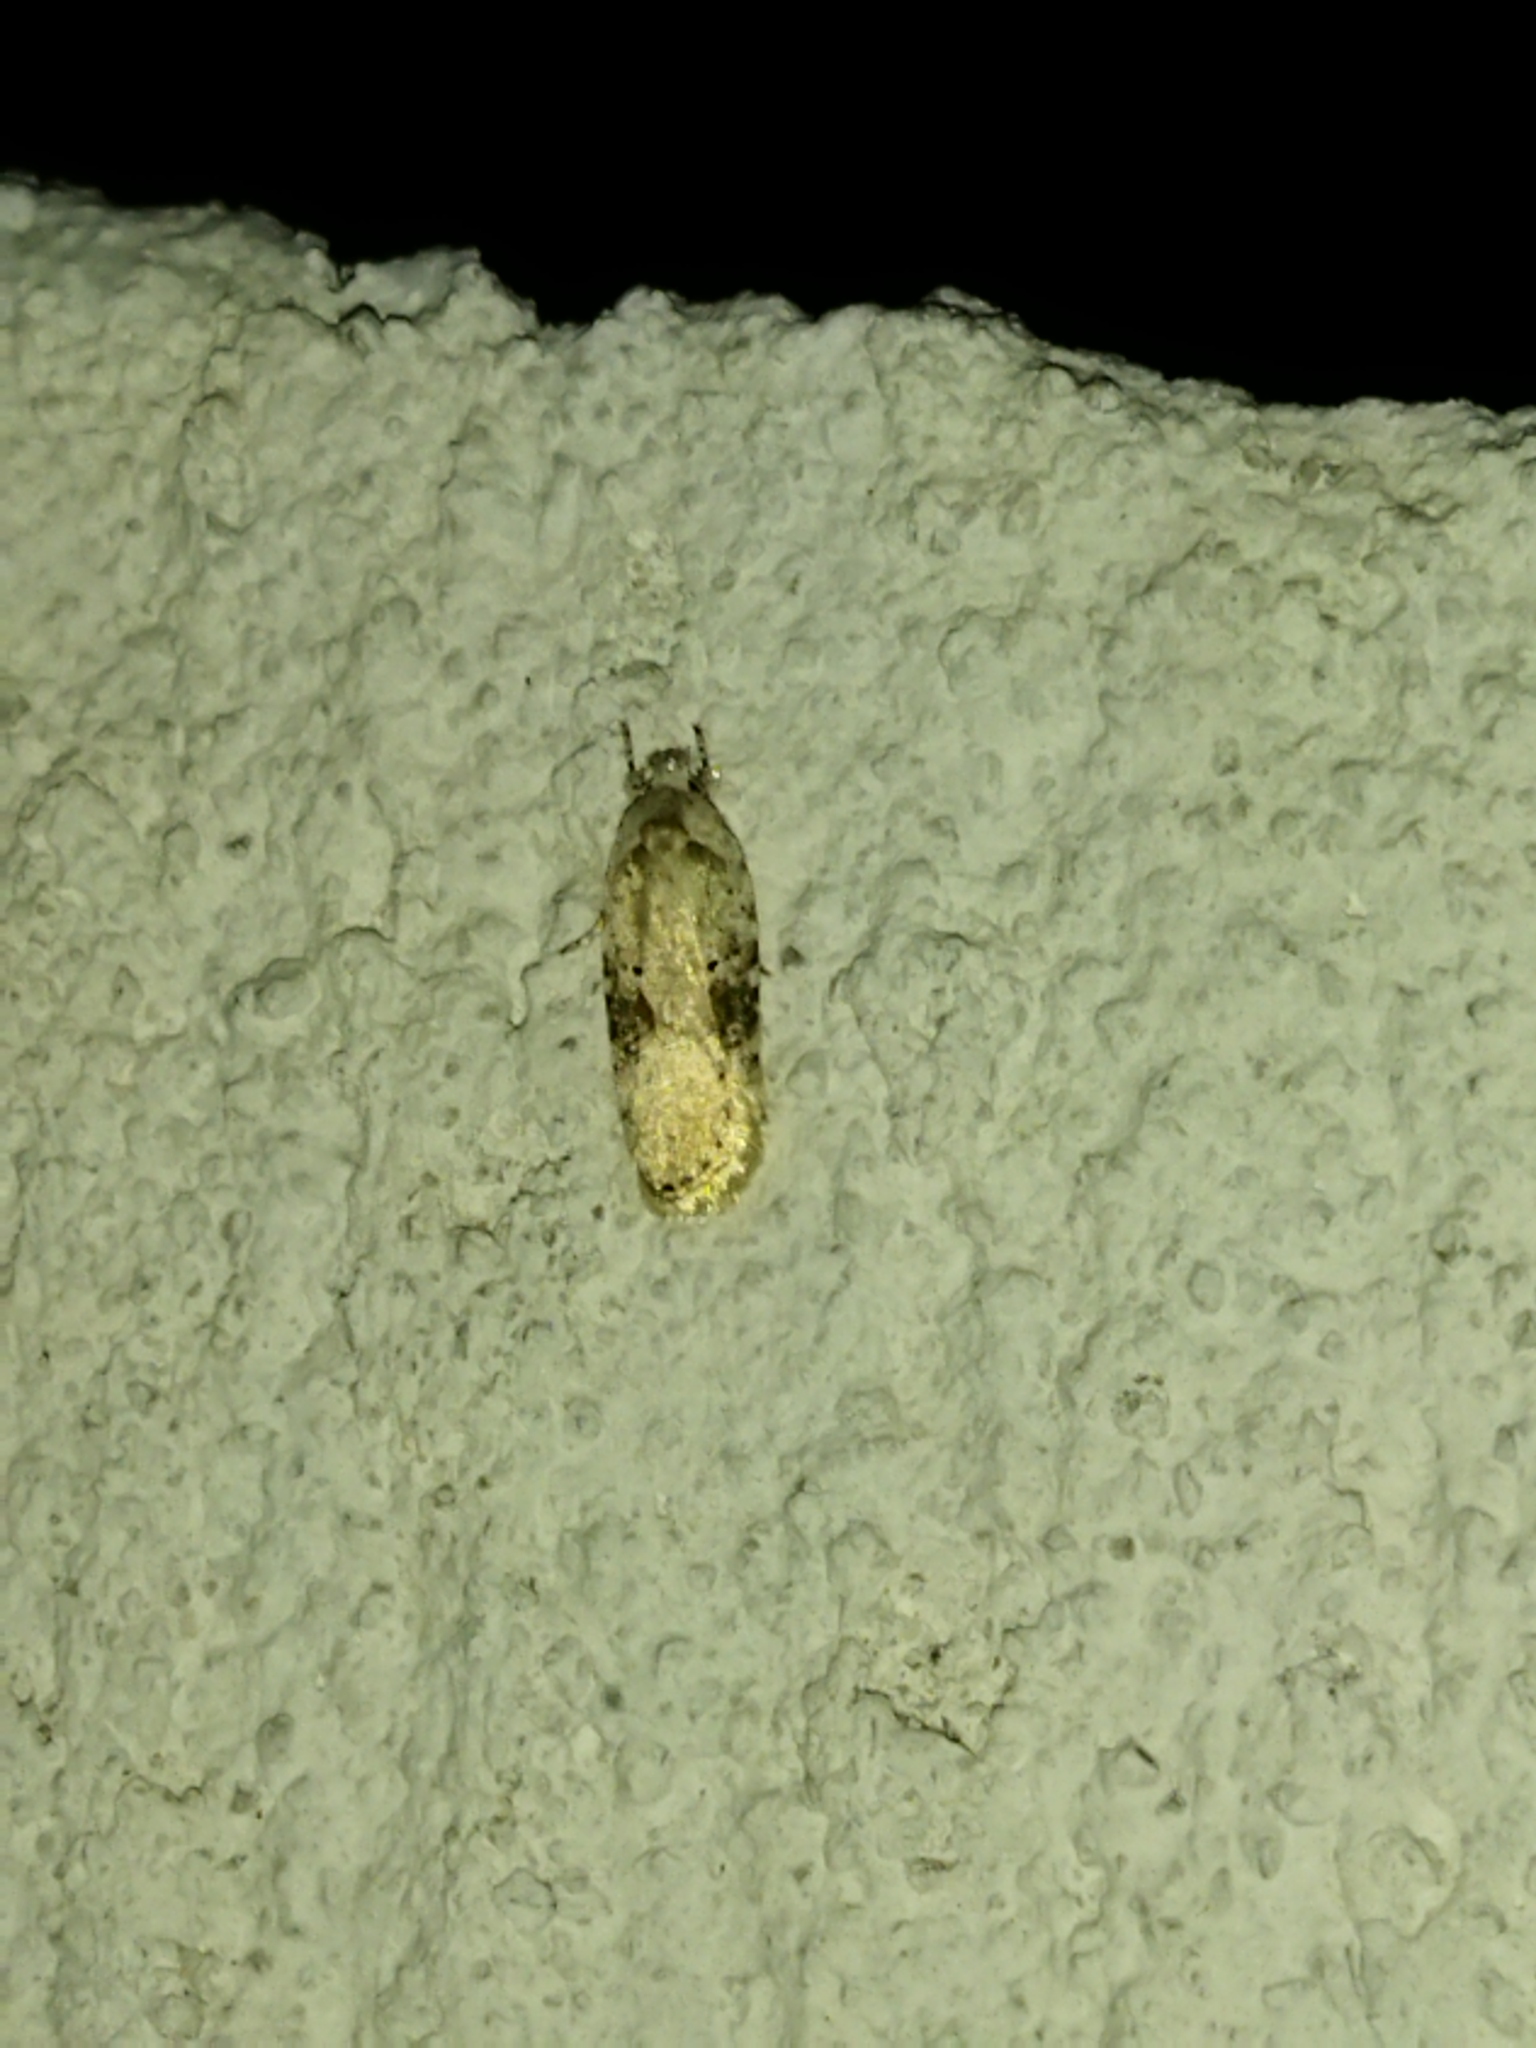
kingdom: Animalia
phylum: Arthropoda
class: Insecta
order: Lepidoptera
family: Depressariidae
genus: Agonopterix
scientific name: Agonopterix alstroemeriana
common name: Moth
